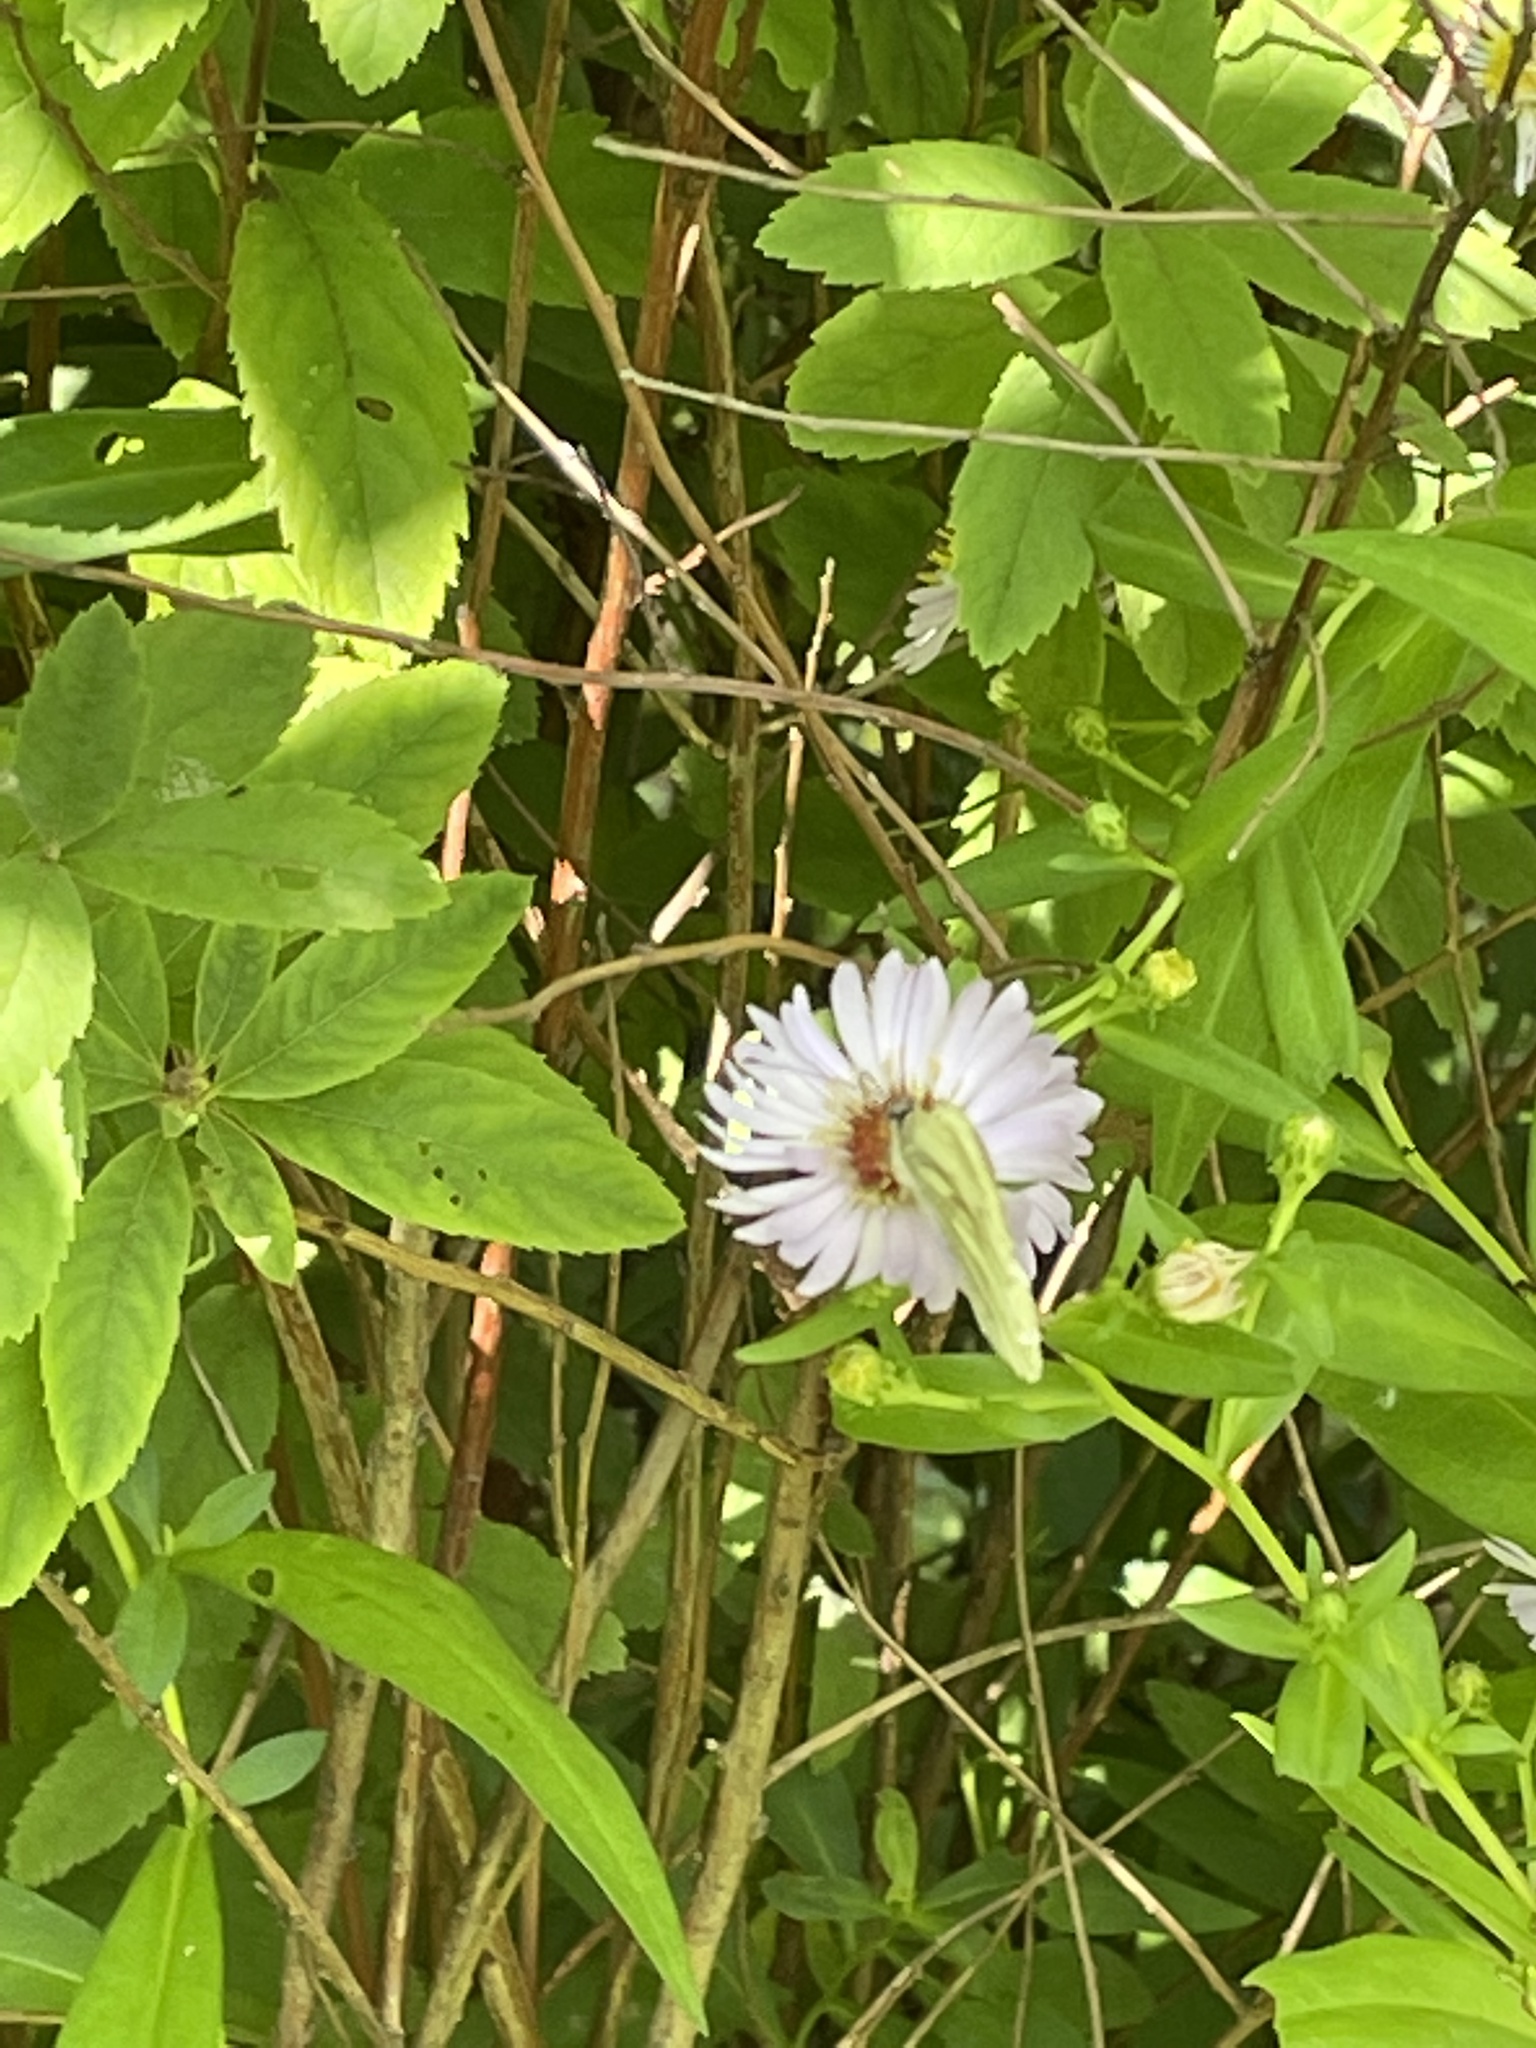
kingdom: Animalia
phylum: Arthropoda
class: Insecta
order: Lepidoptera
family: Pieridae
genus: Pieris
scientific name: Pieris napi
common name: Green-veined white
